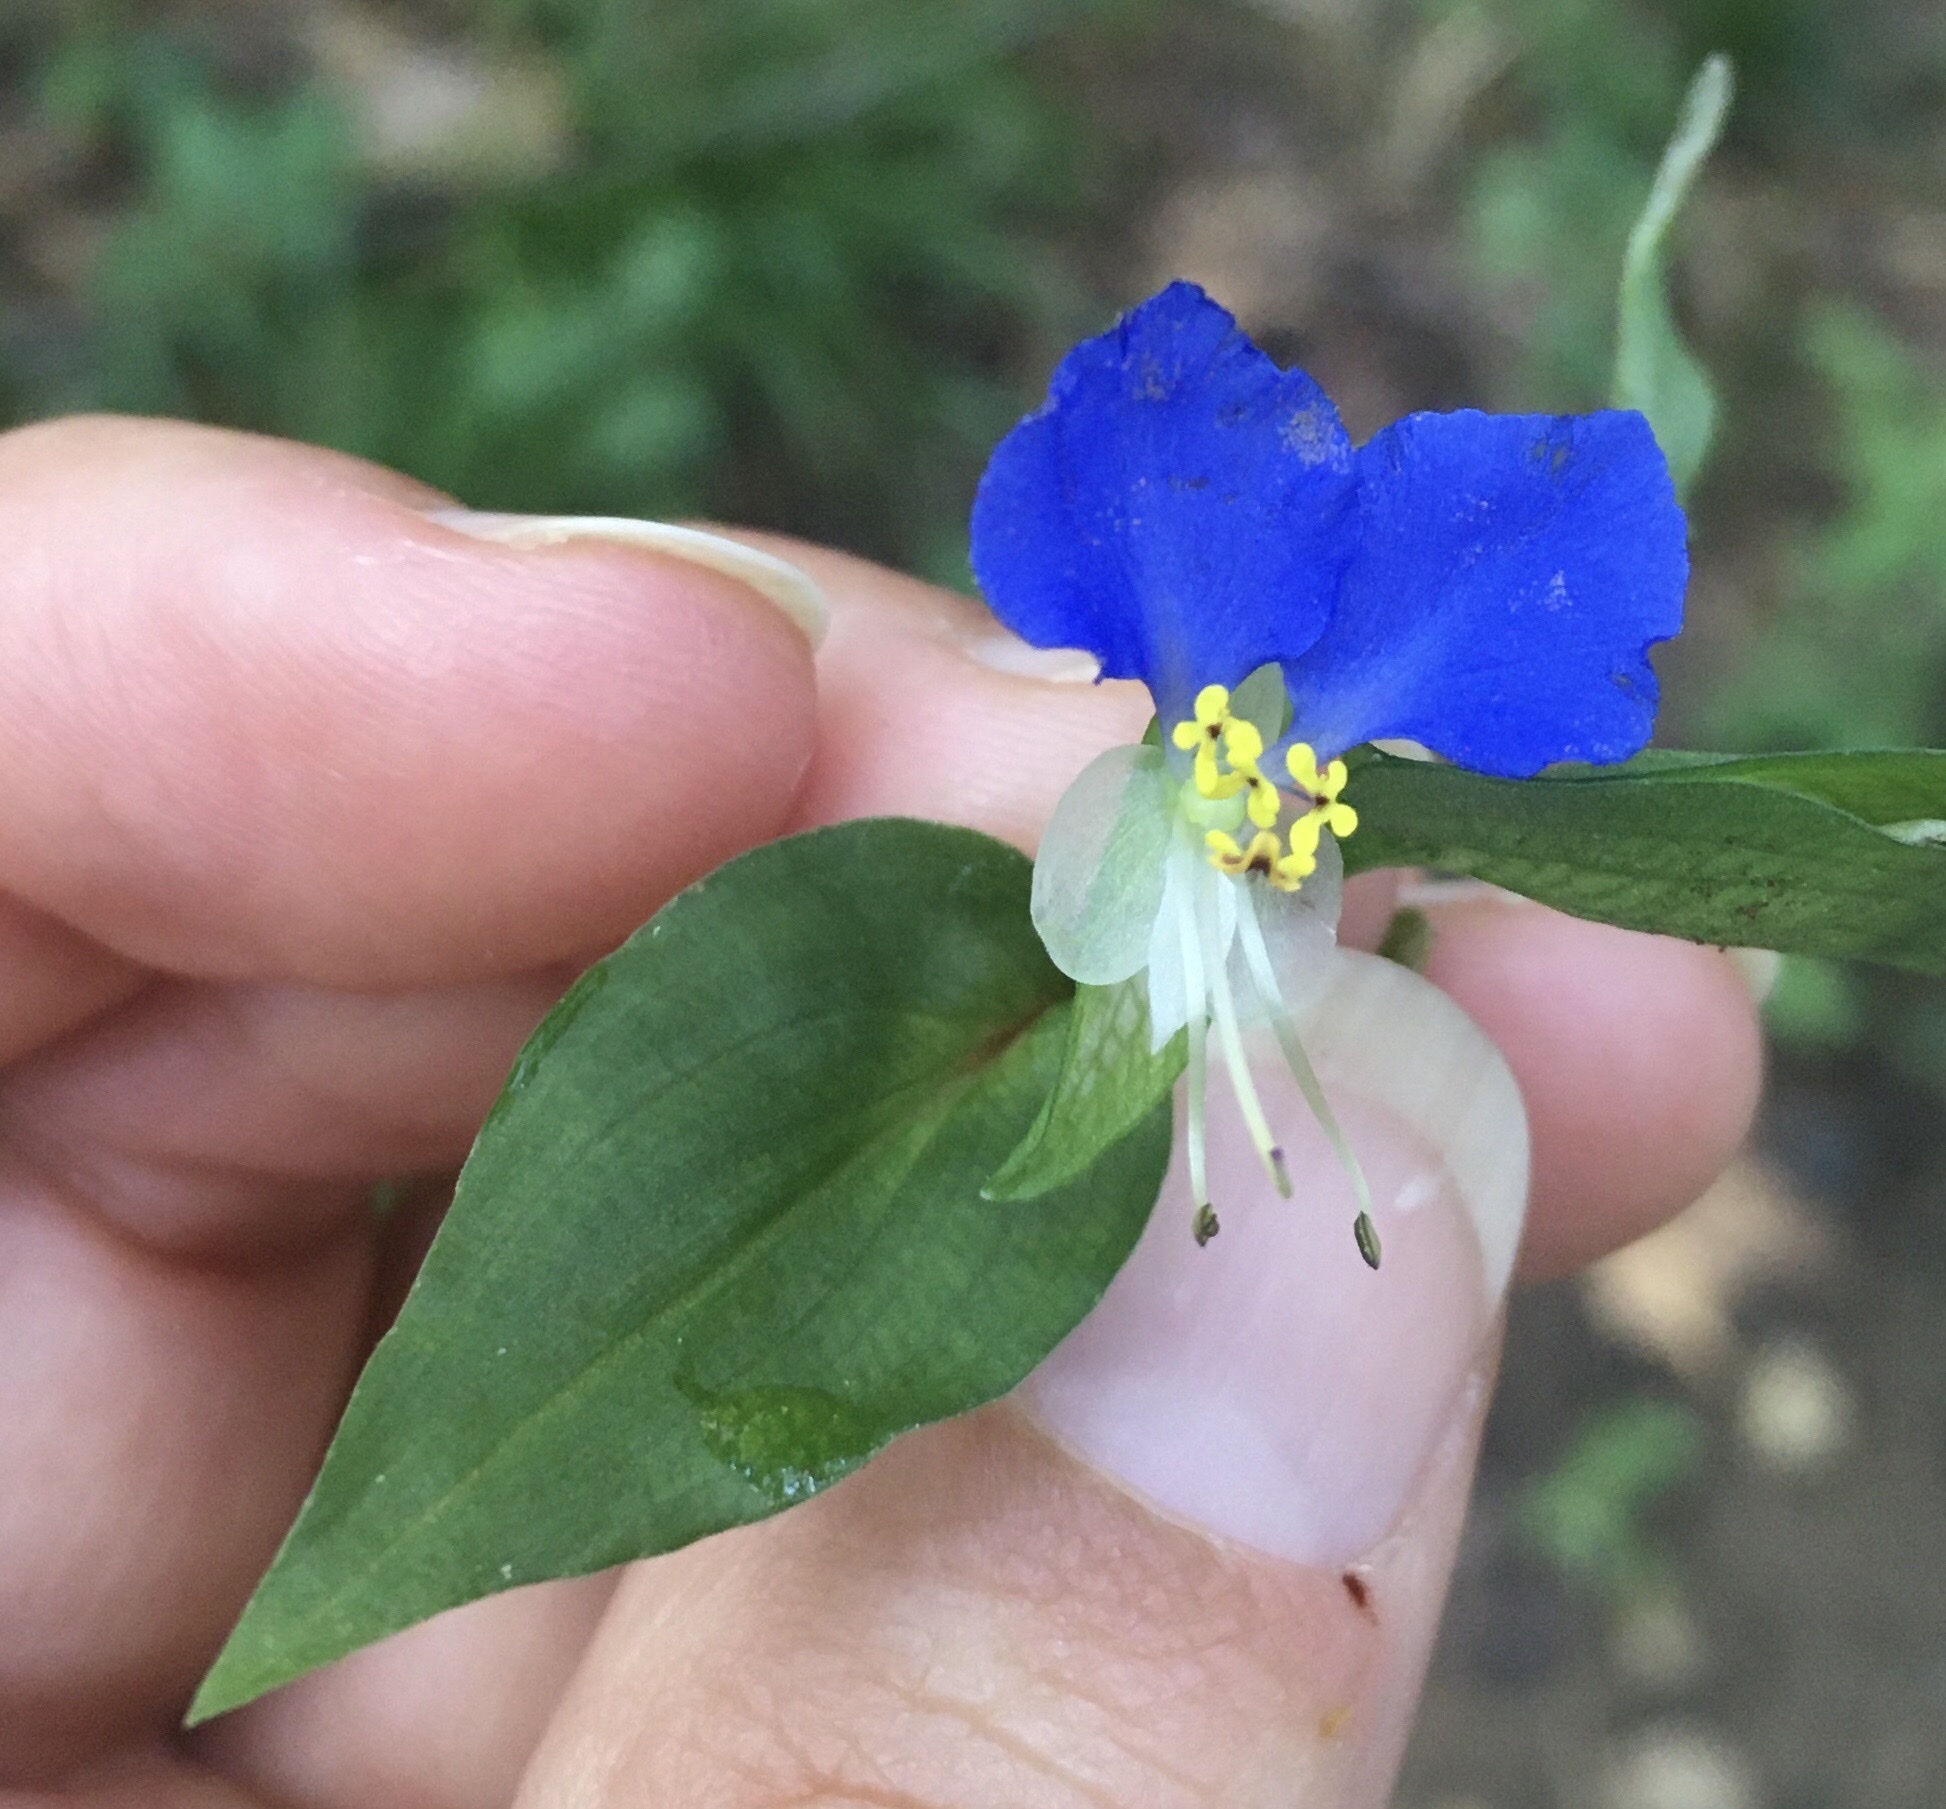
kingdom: Plantae
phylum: Tracheophyta
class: Liliopsida
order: Commelinales
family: Commelinaceae
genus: Commelina
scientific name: Commelina communis
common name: Asiatic dayflower
